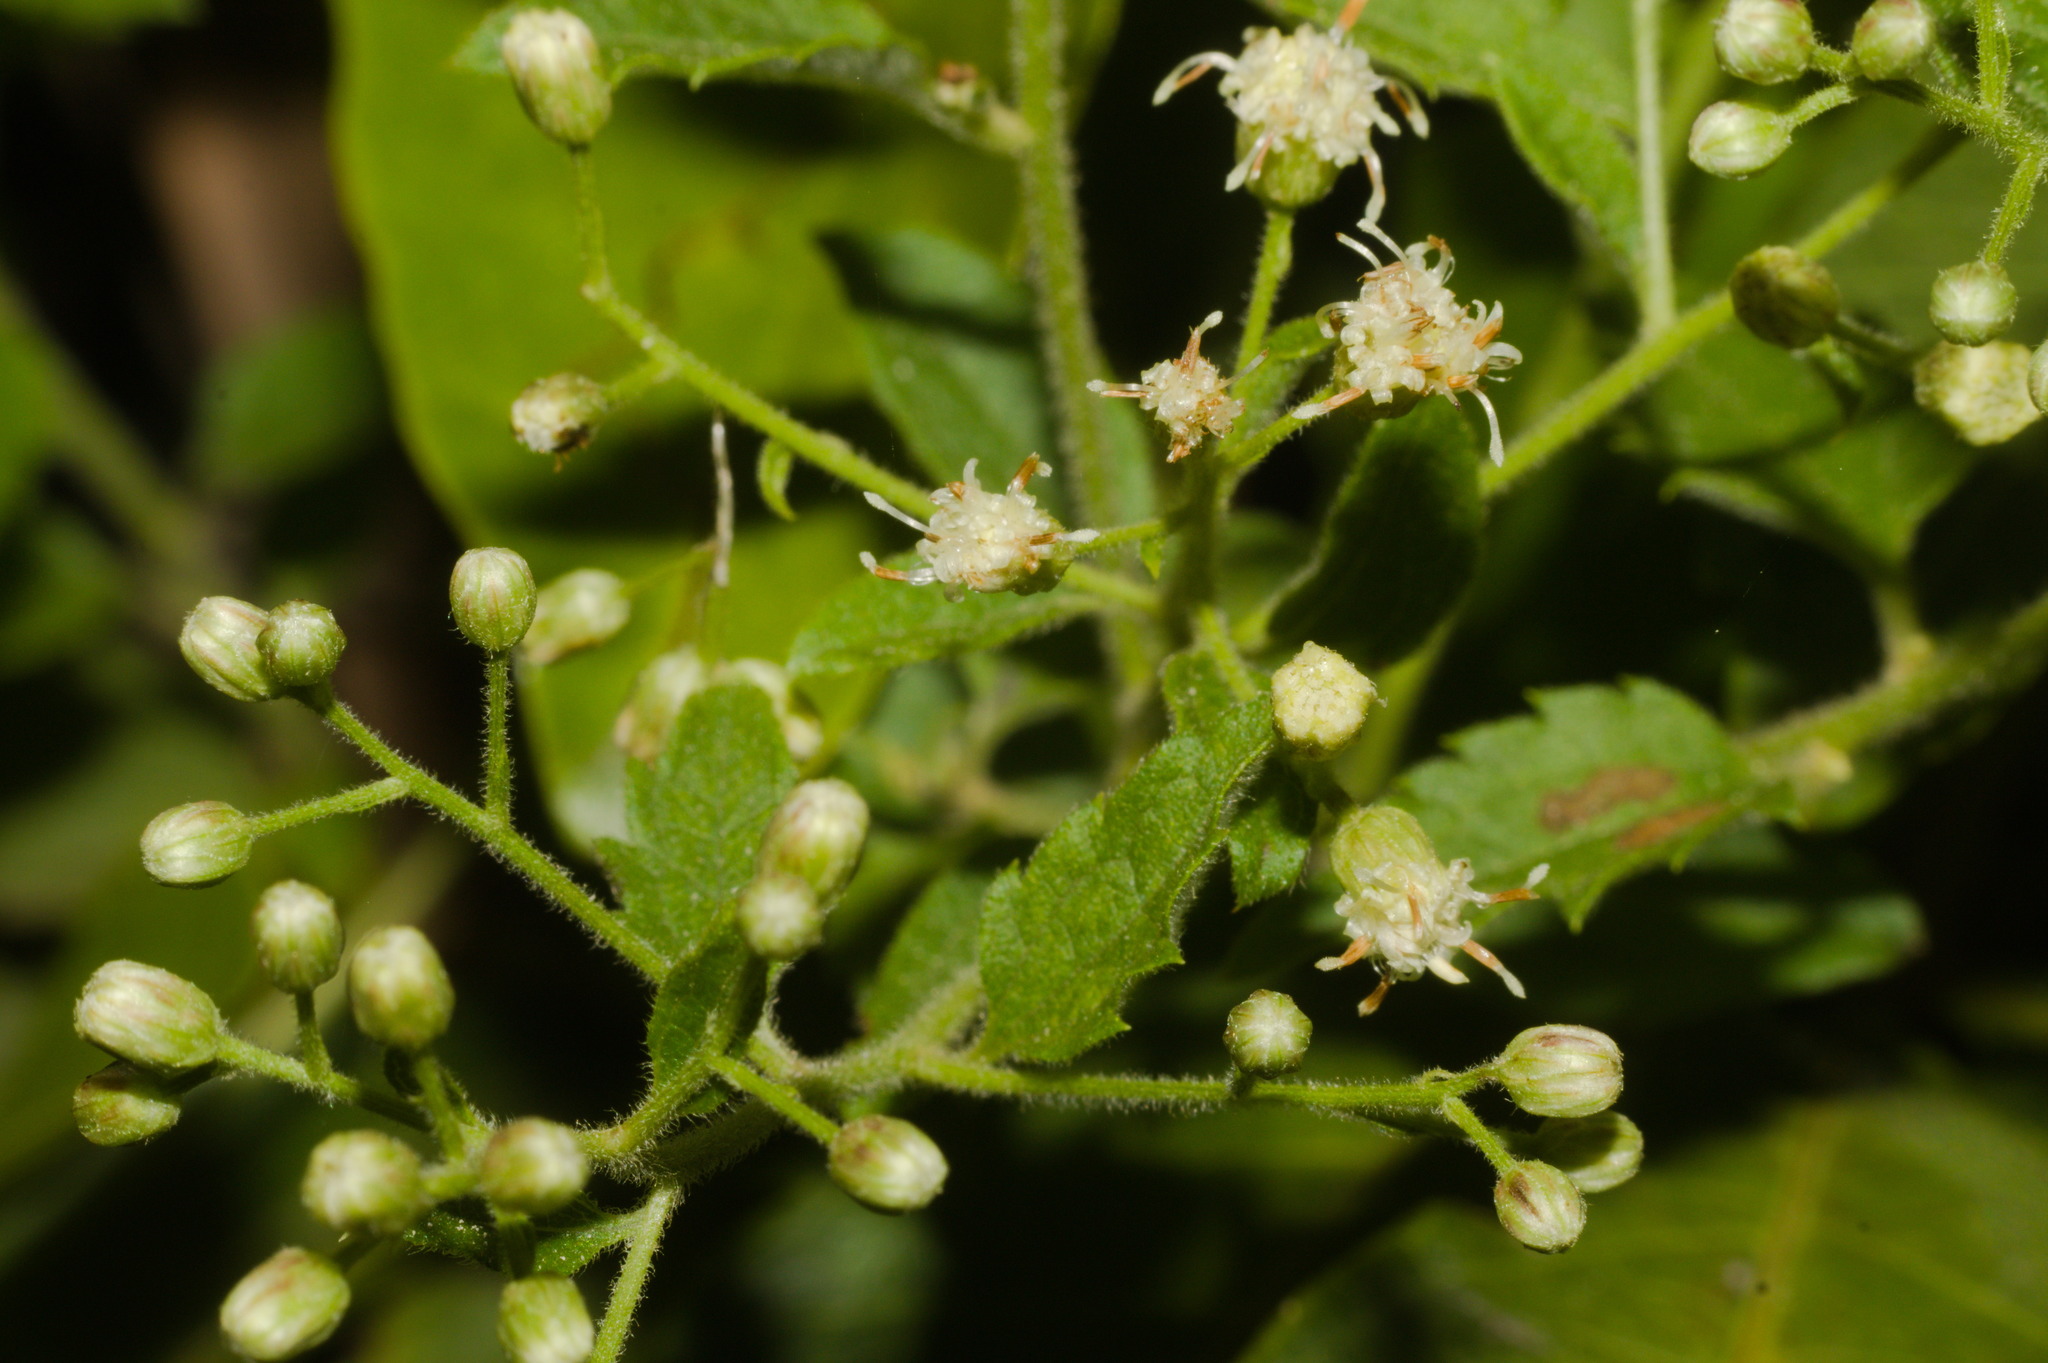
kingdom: Plantae
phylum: Tracheophyta
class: Magnoliopsida
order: Asterales
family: Asteraceae
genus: Baccharis
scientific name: Baccharis anomala
